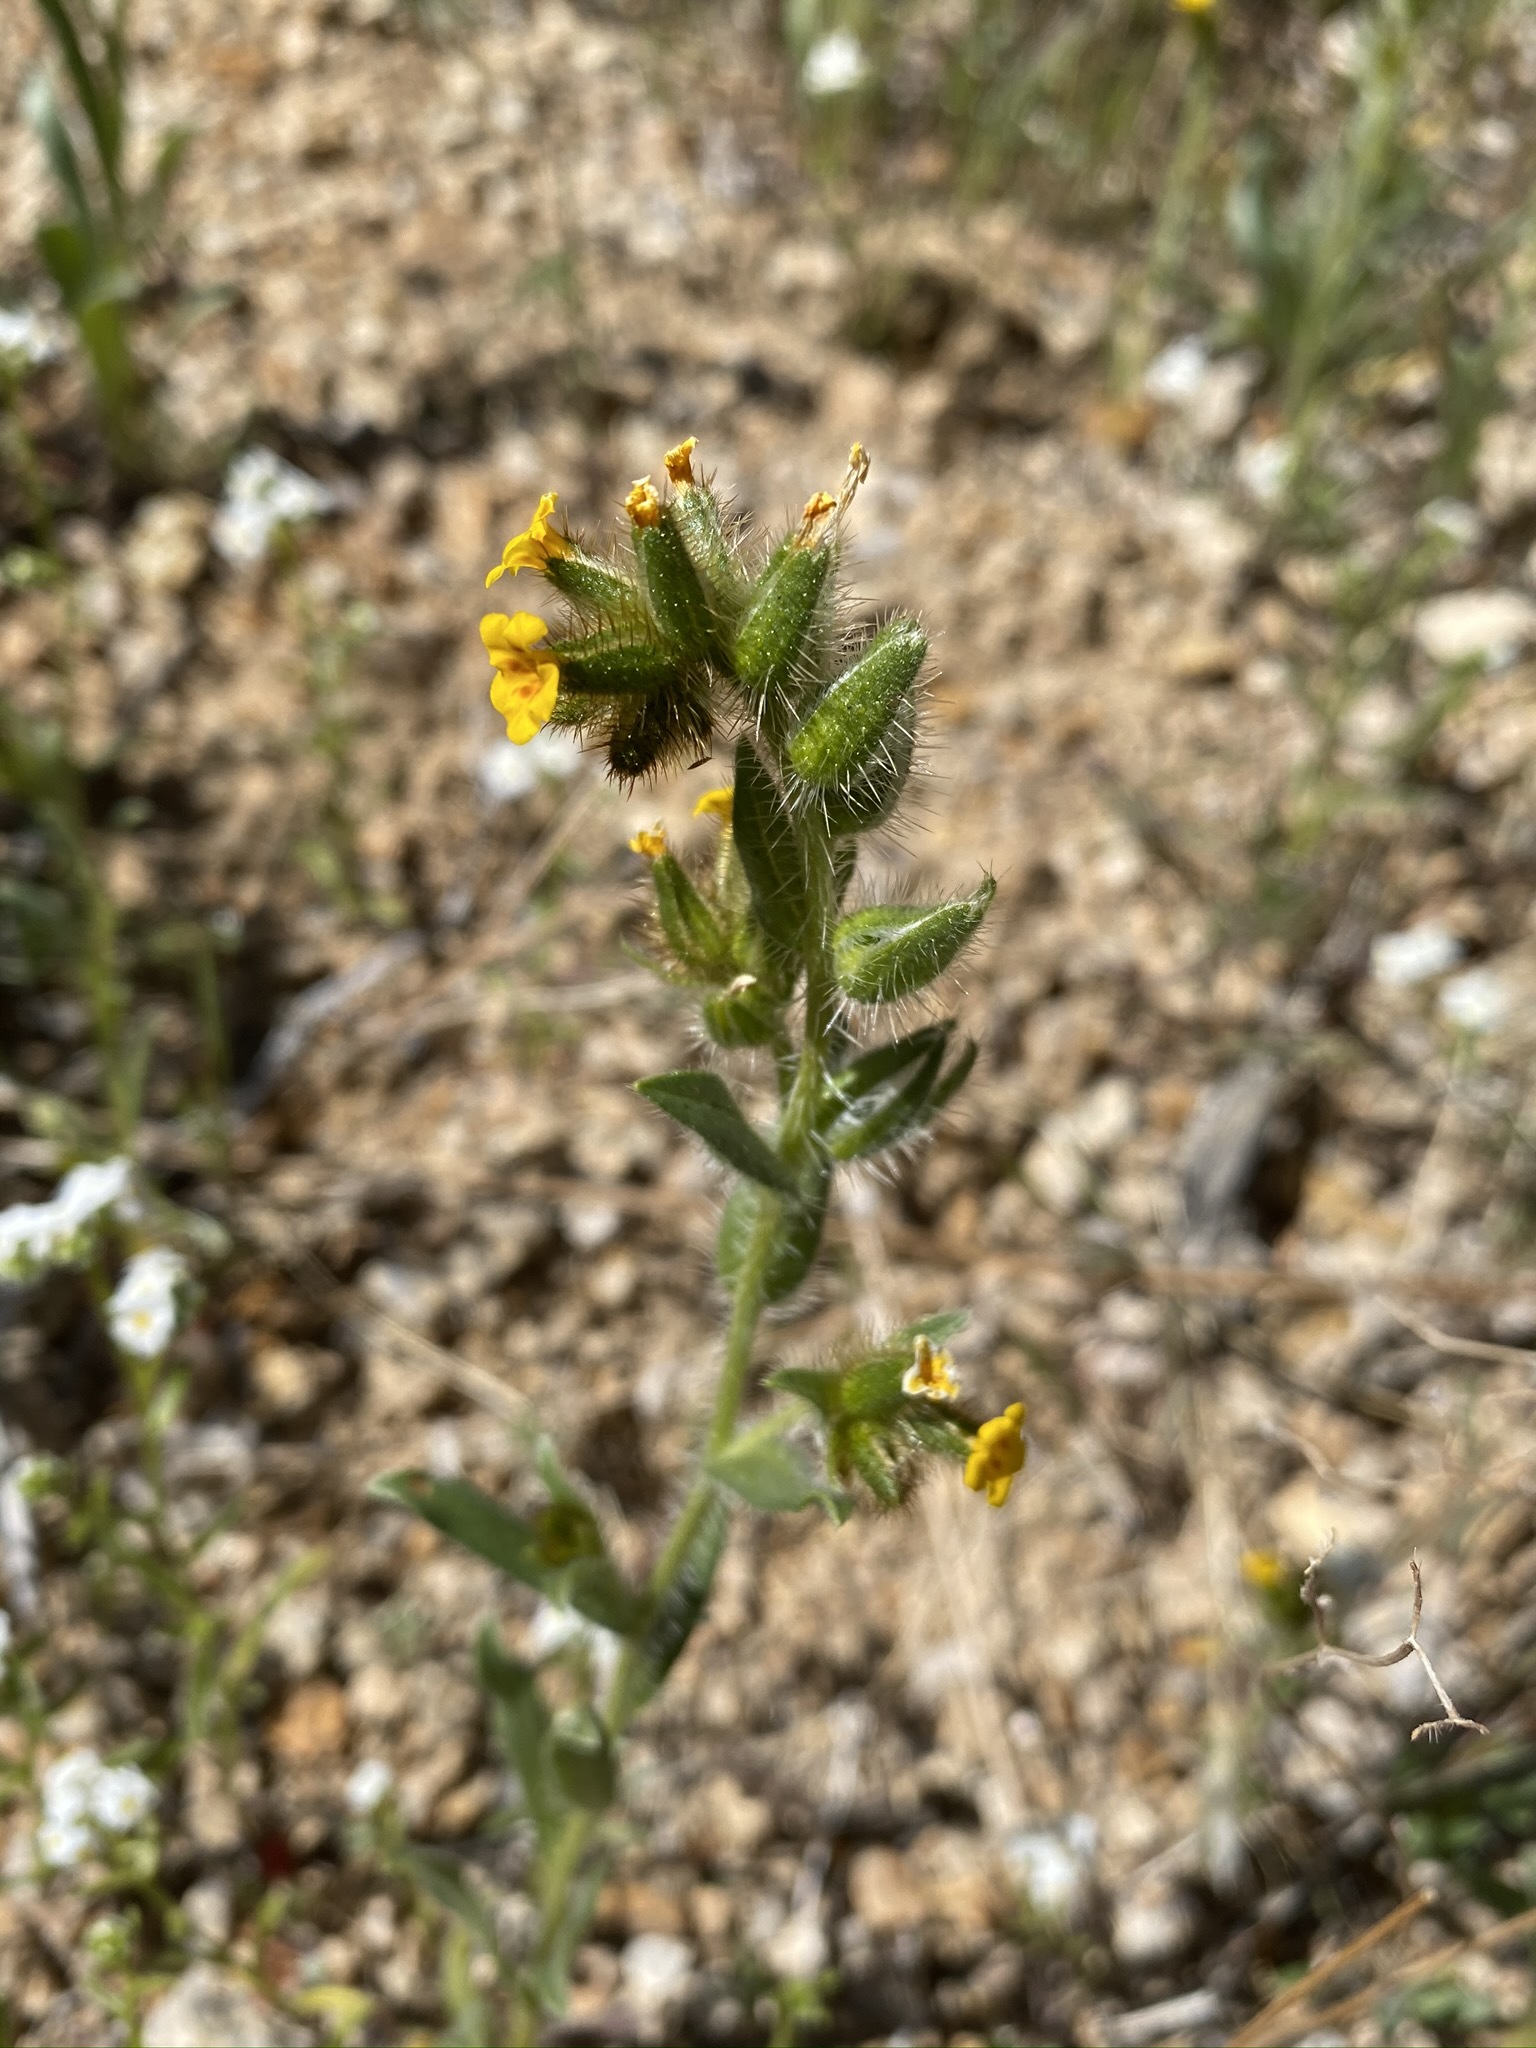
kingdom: Plantae
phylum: Tracheophyta
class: Magnoliopsida
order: Boraginales
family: Boraginaceae
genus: Amsinckia
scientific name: Amsinckia tessellata
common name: Tessellate fiddleneck
